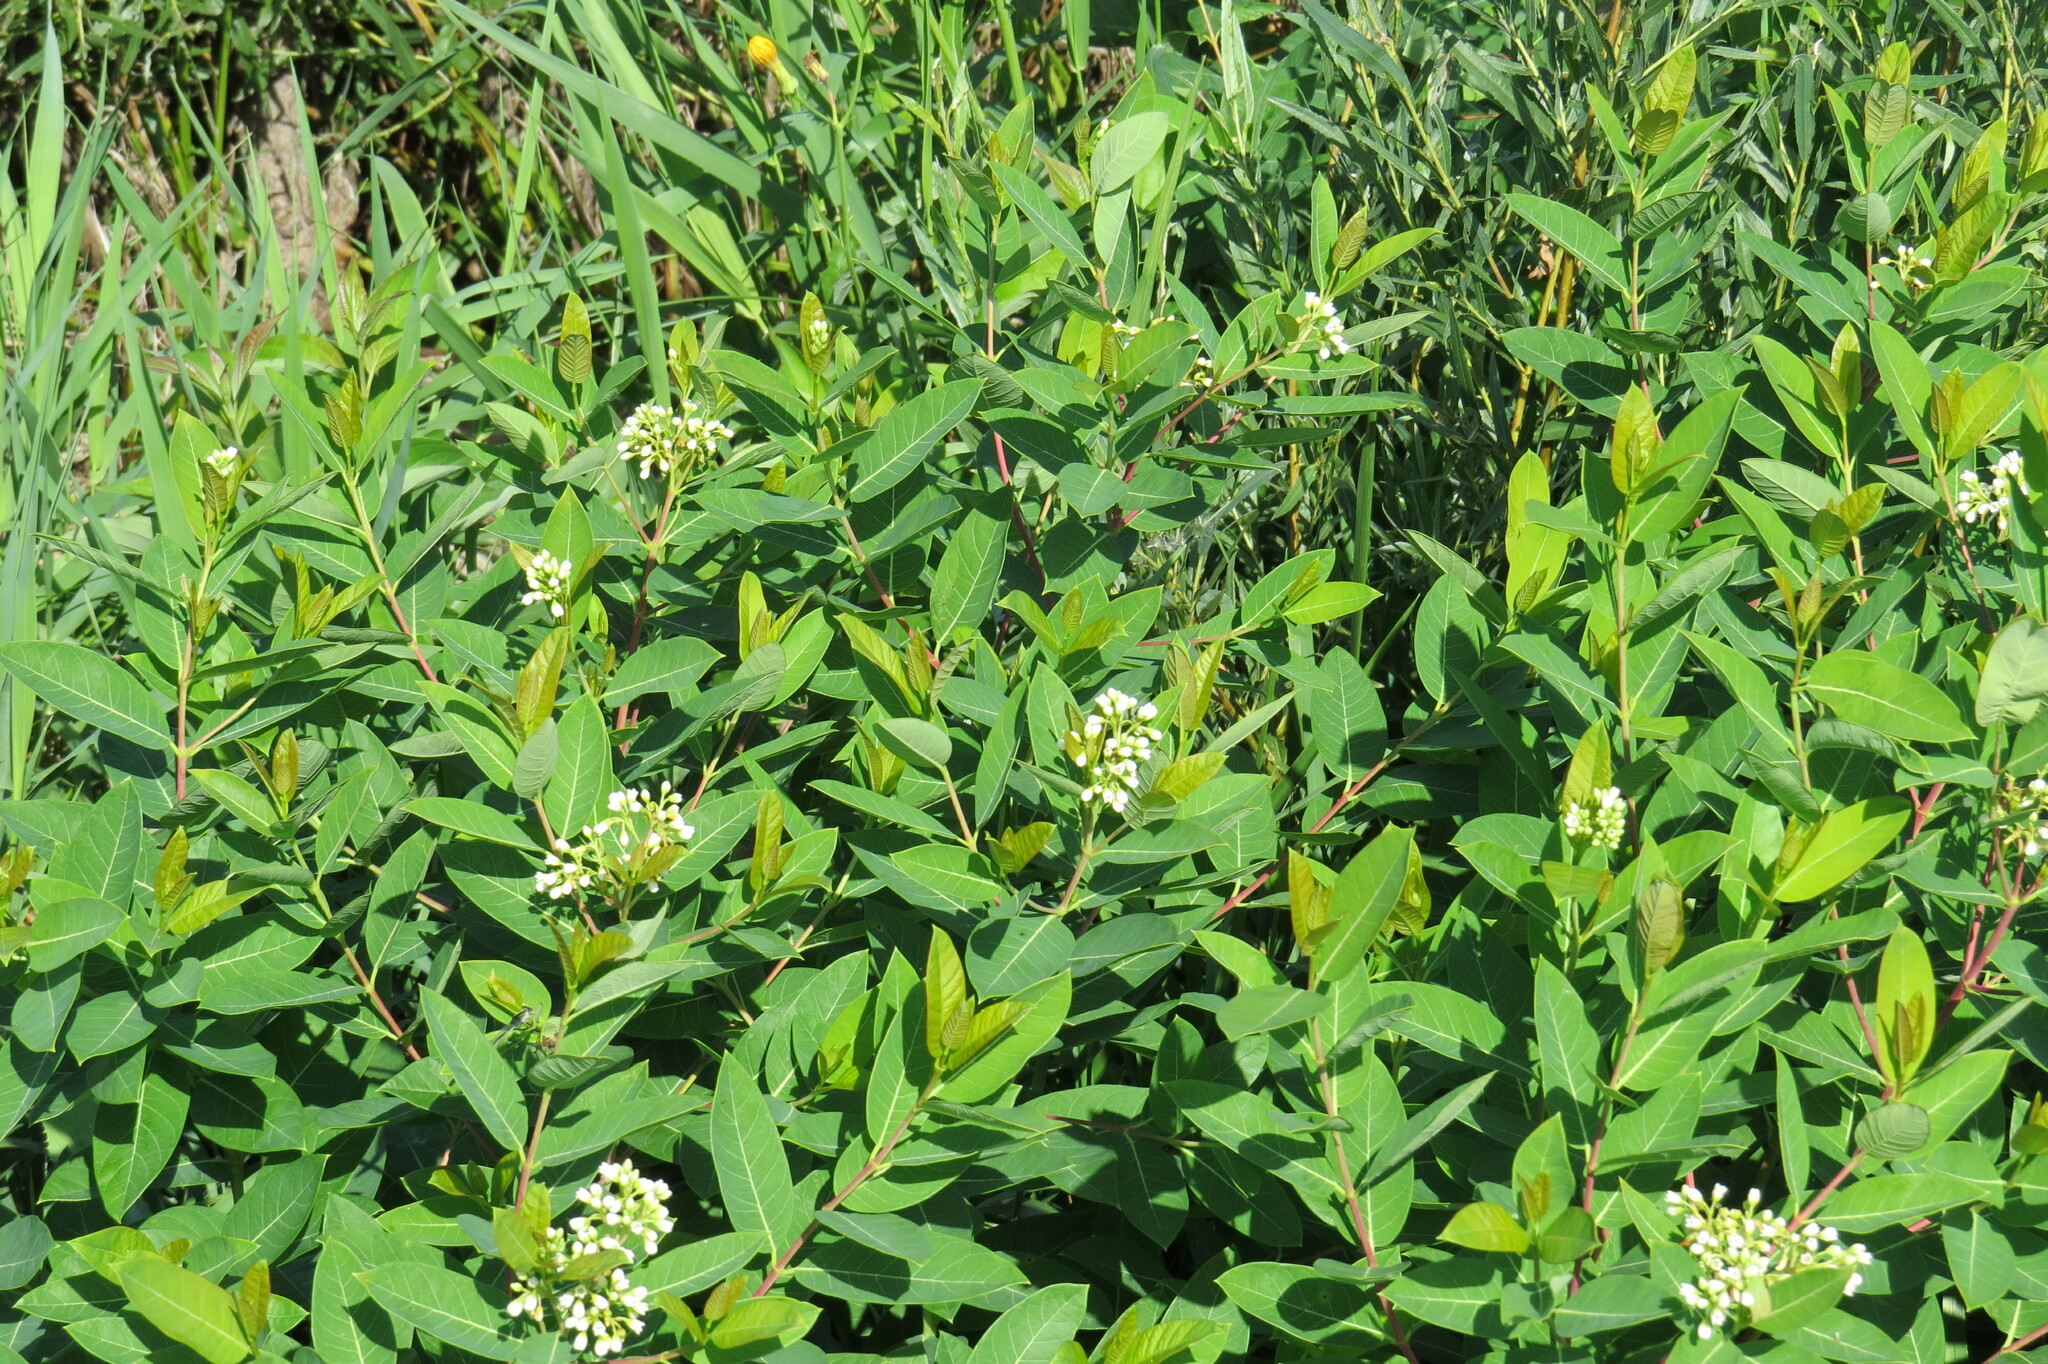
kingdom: Plantae
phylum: Tracheophyta
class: Magnoliopsida
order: Gentianales
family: Apocynaceae
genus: Apocynum
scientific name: Apocynum cannabinum
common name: Hemp dogbane
